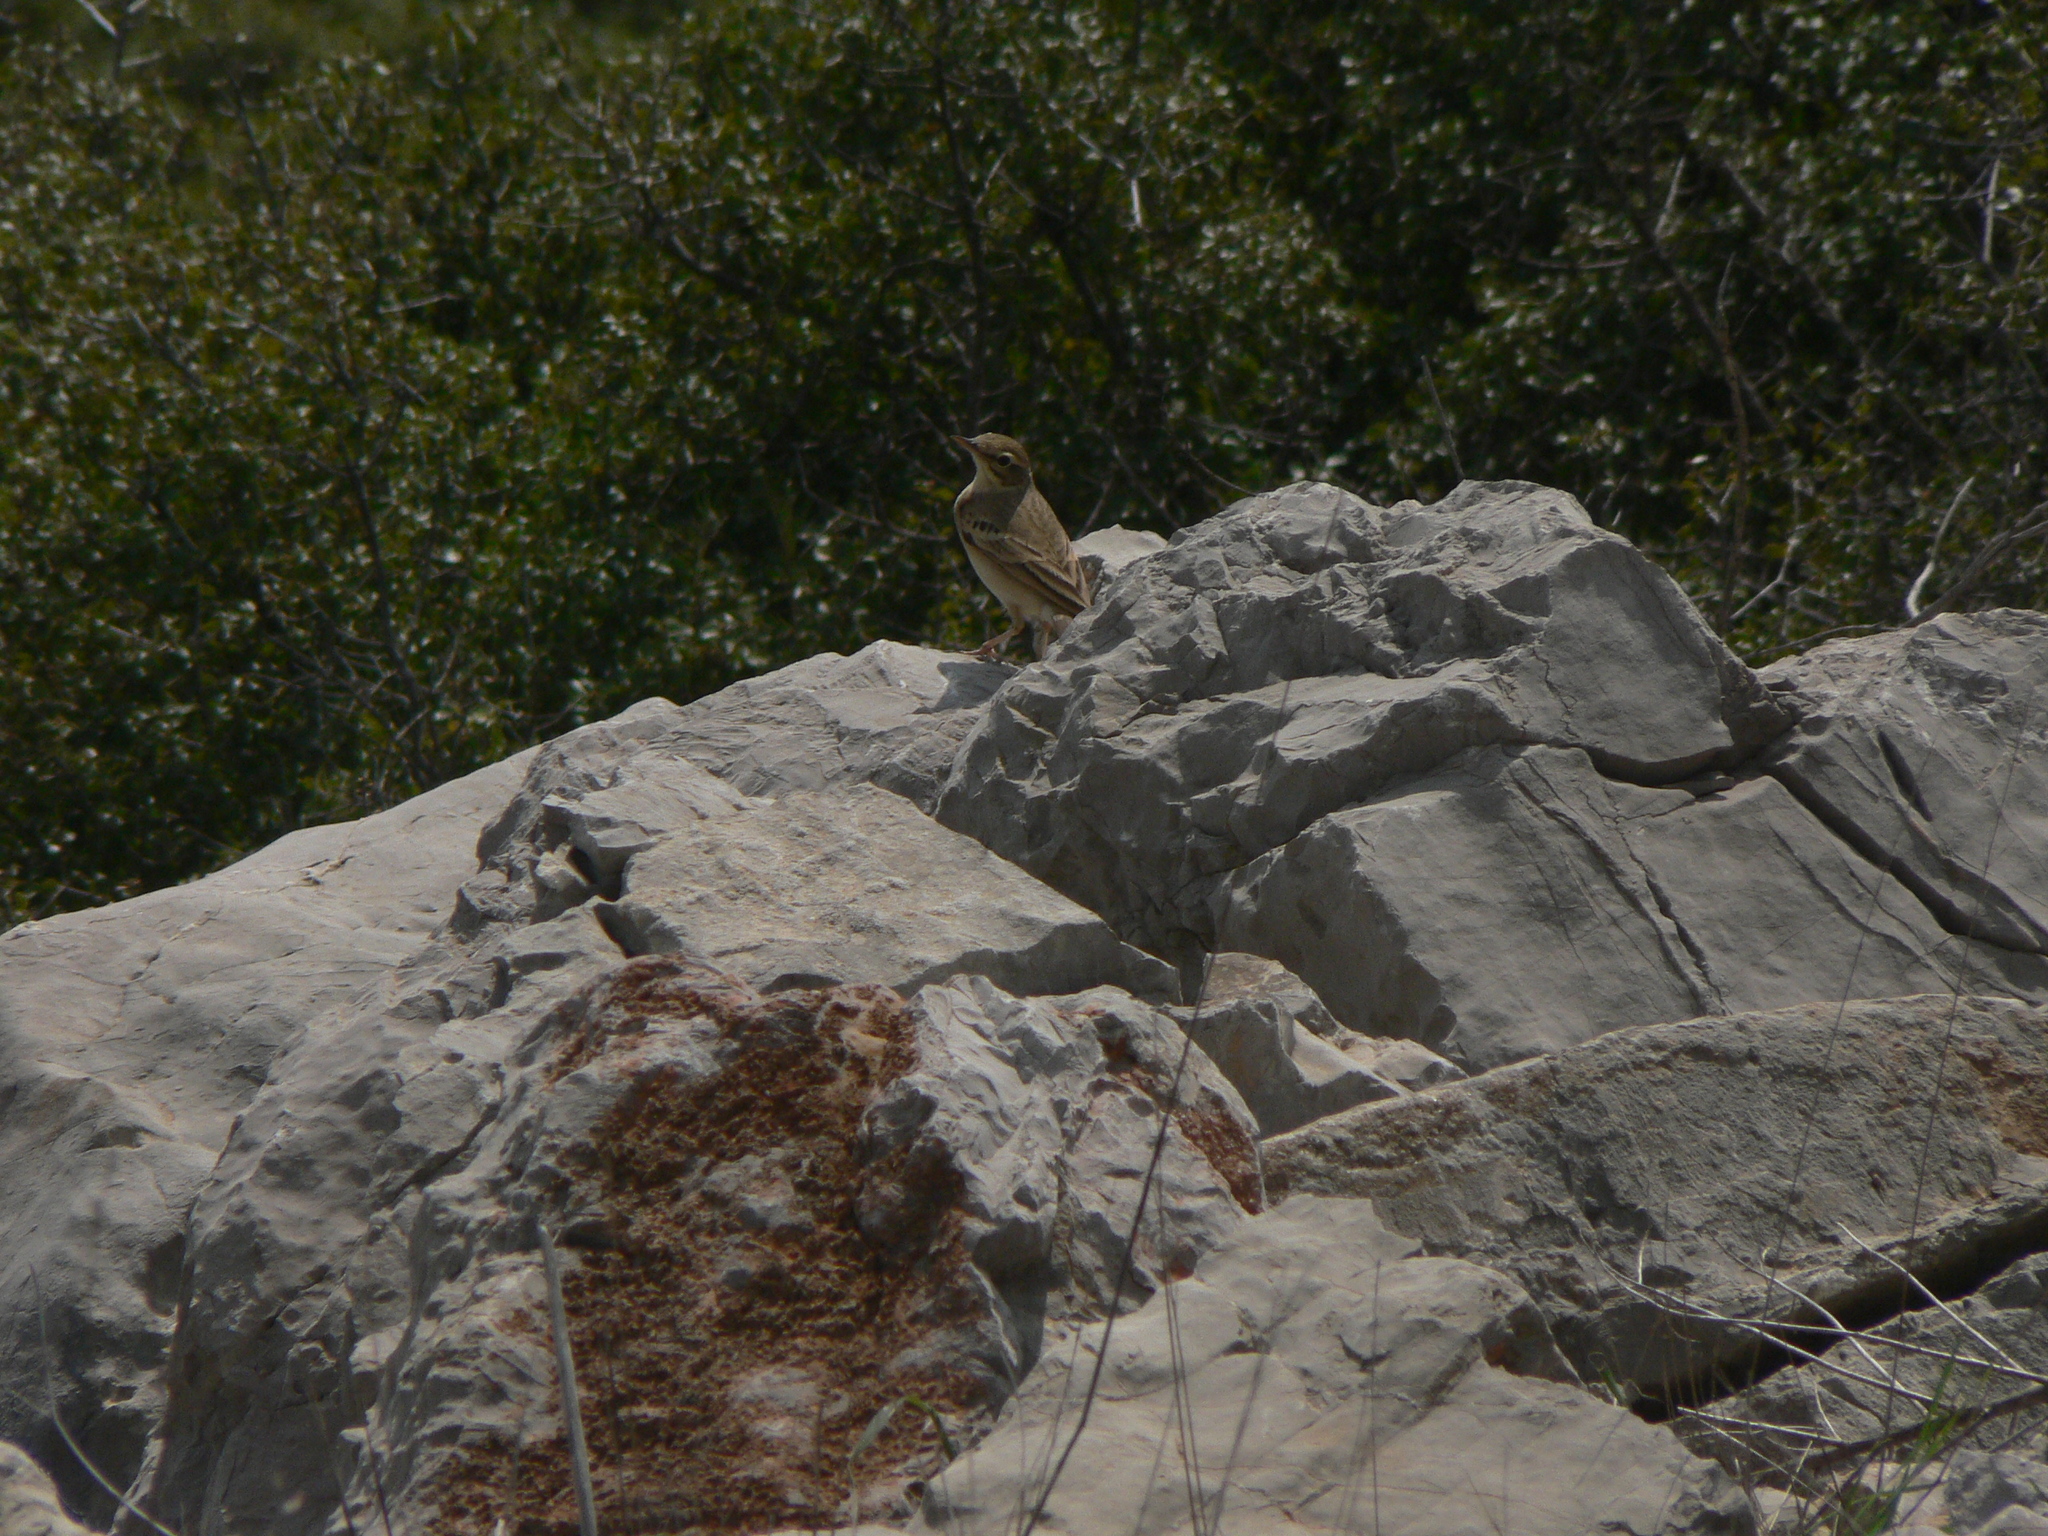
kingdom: Animalia
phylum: Chordata
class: Aves
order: Passeriformes
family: Motacillidae
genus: Anthus
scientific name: Anthus campestris
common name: Tawny pipit
